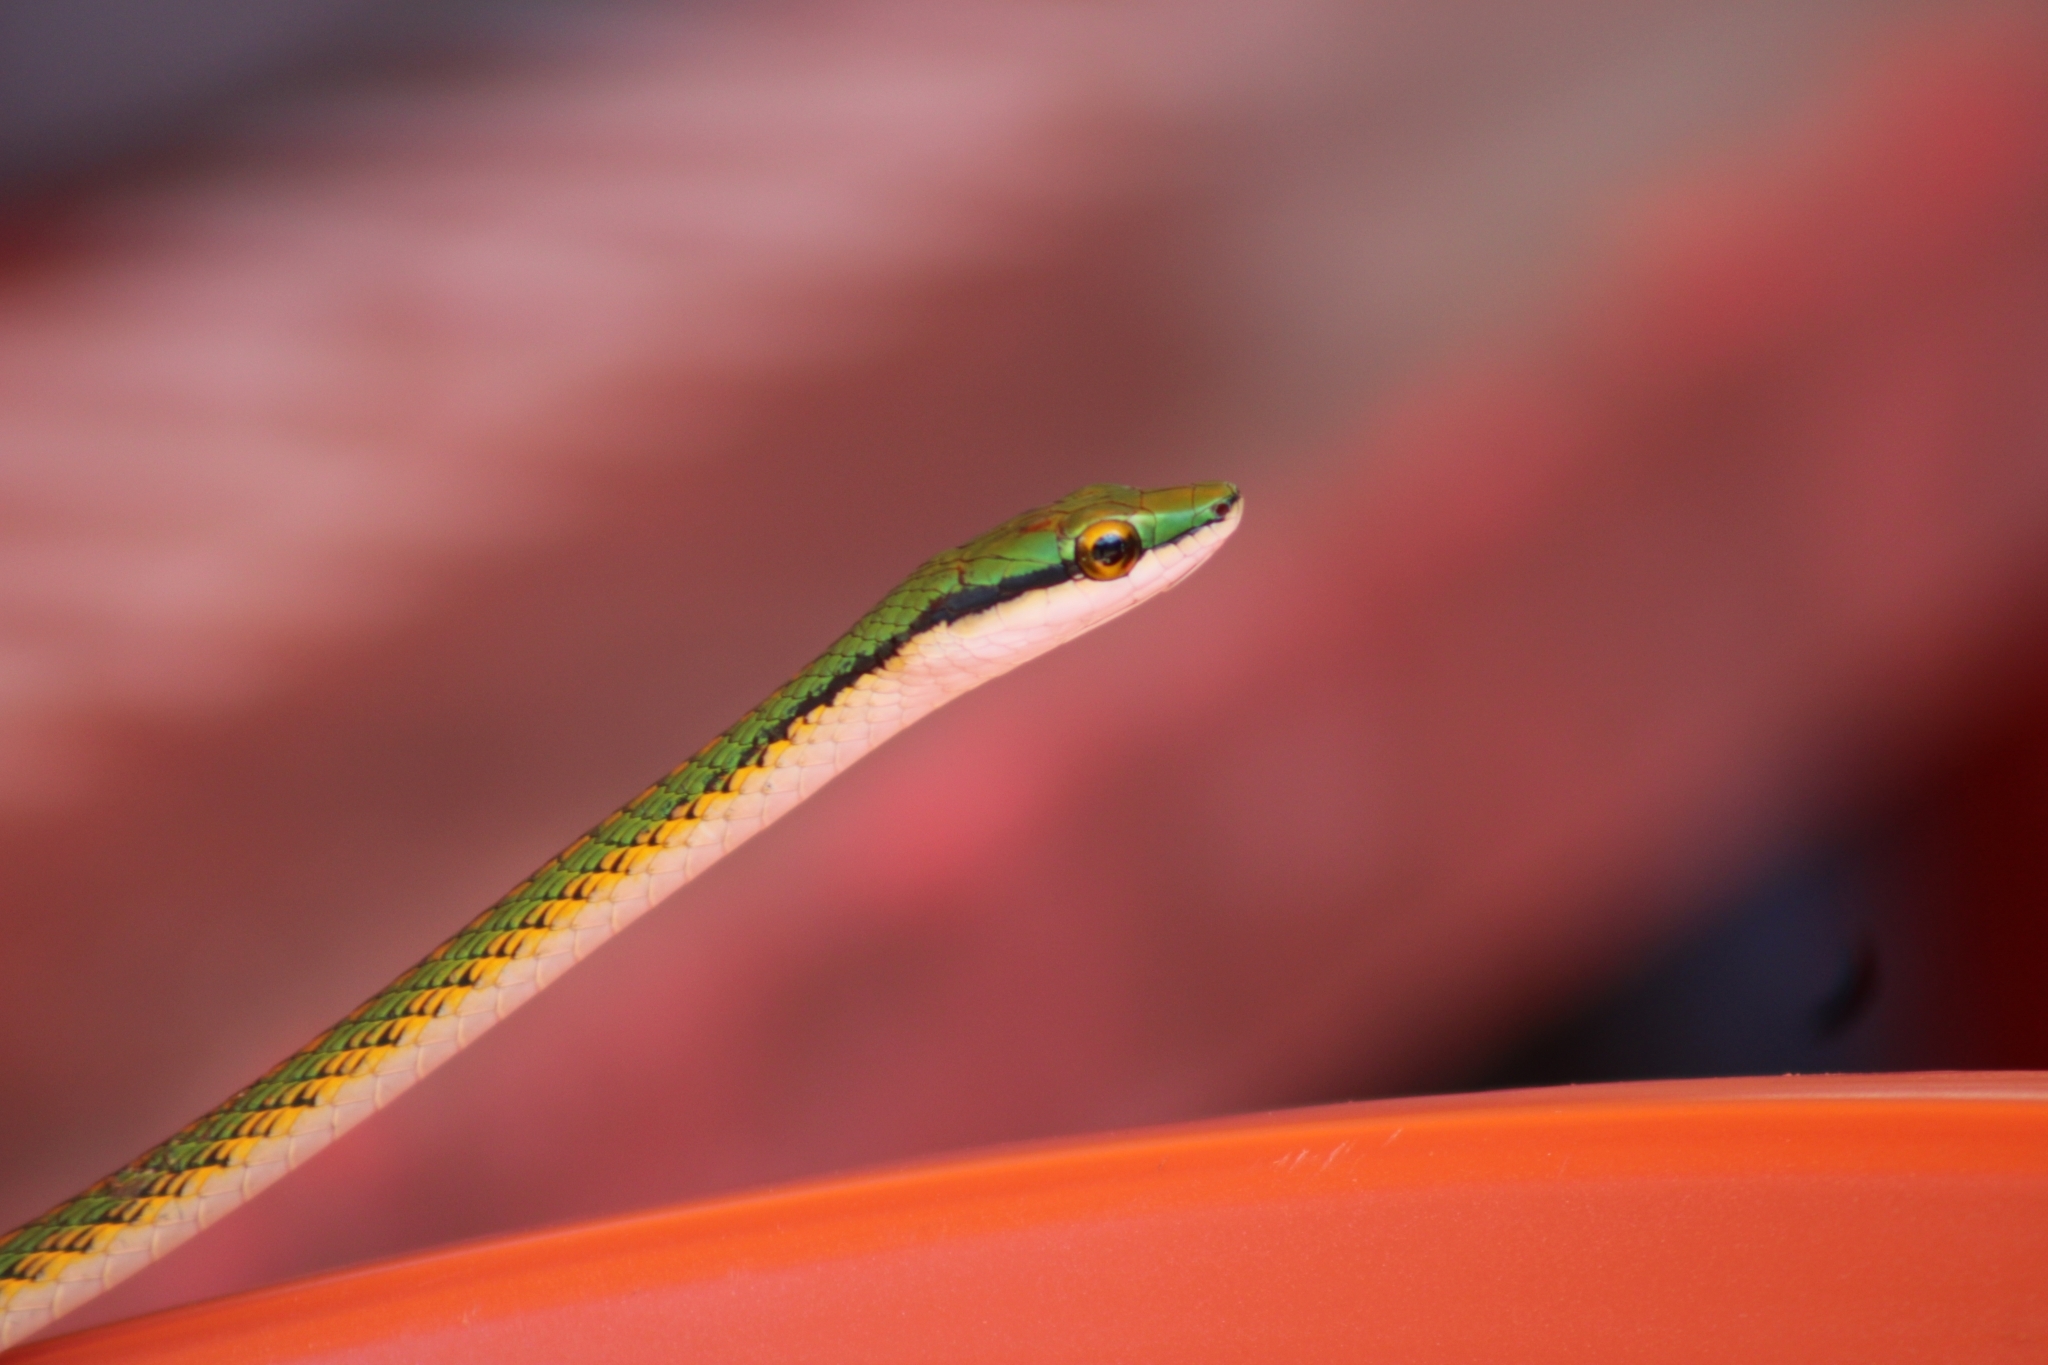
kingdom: Animalia
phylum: Chordata
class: Squamata
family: Colubridae
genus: Leptophis
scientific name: Leptophis ahaetulla
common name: Parrot snake
